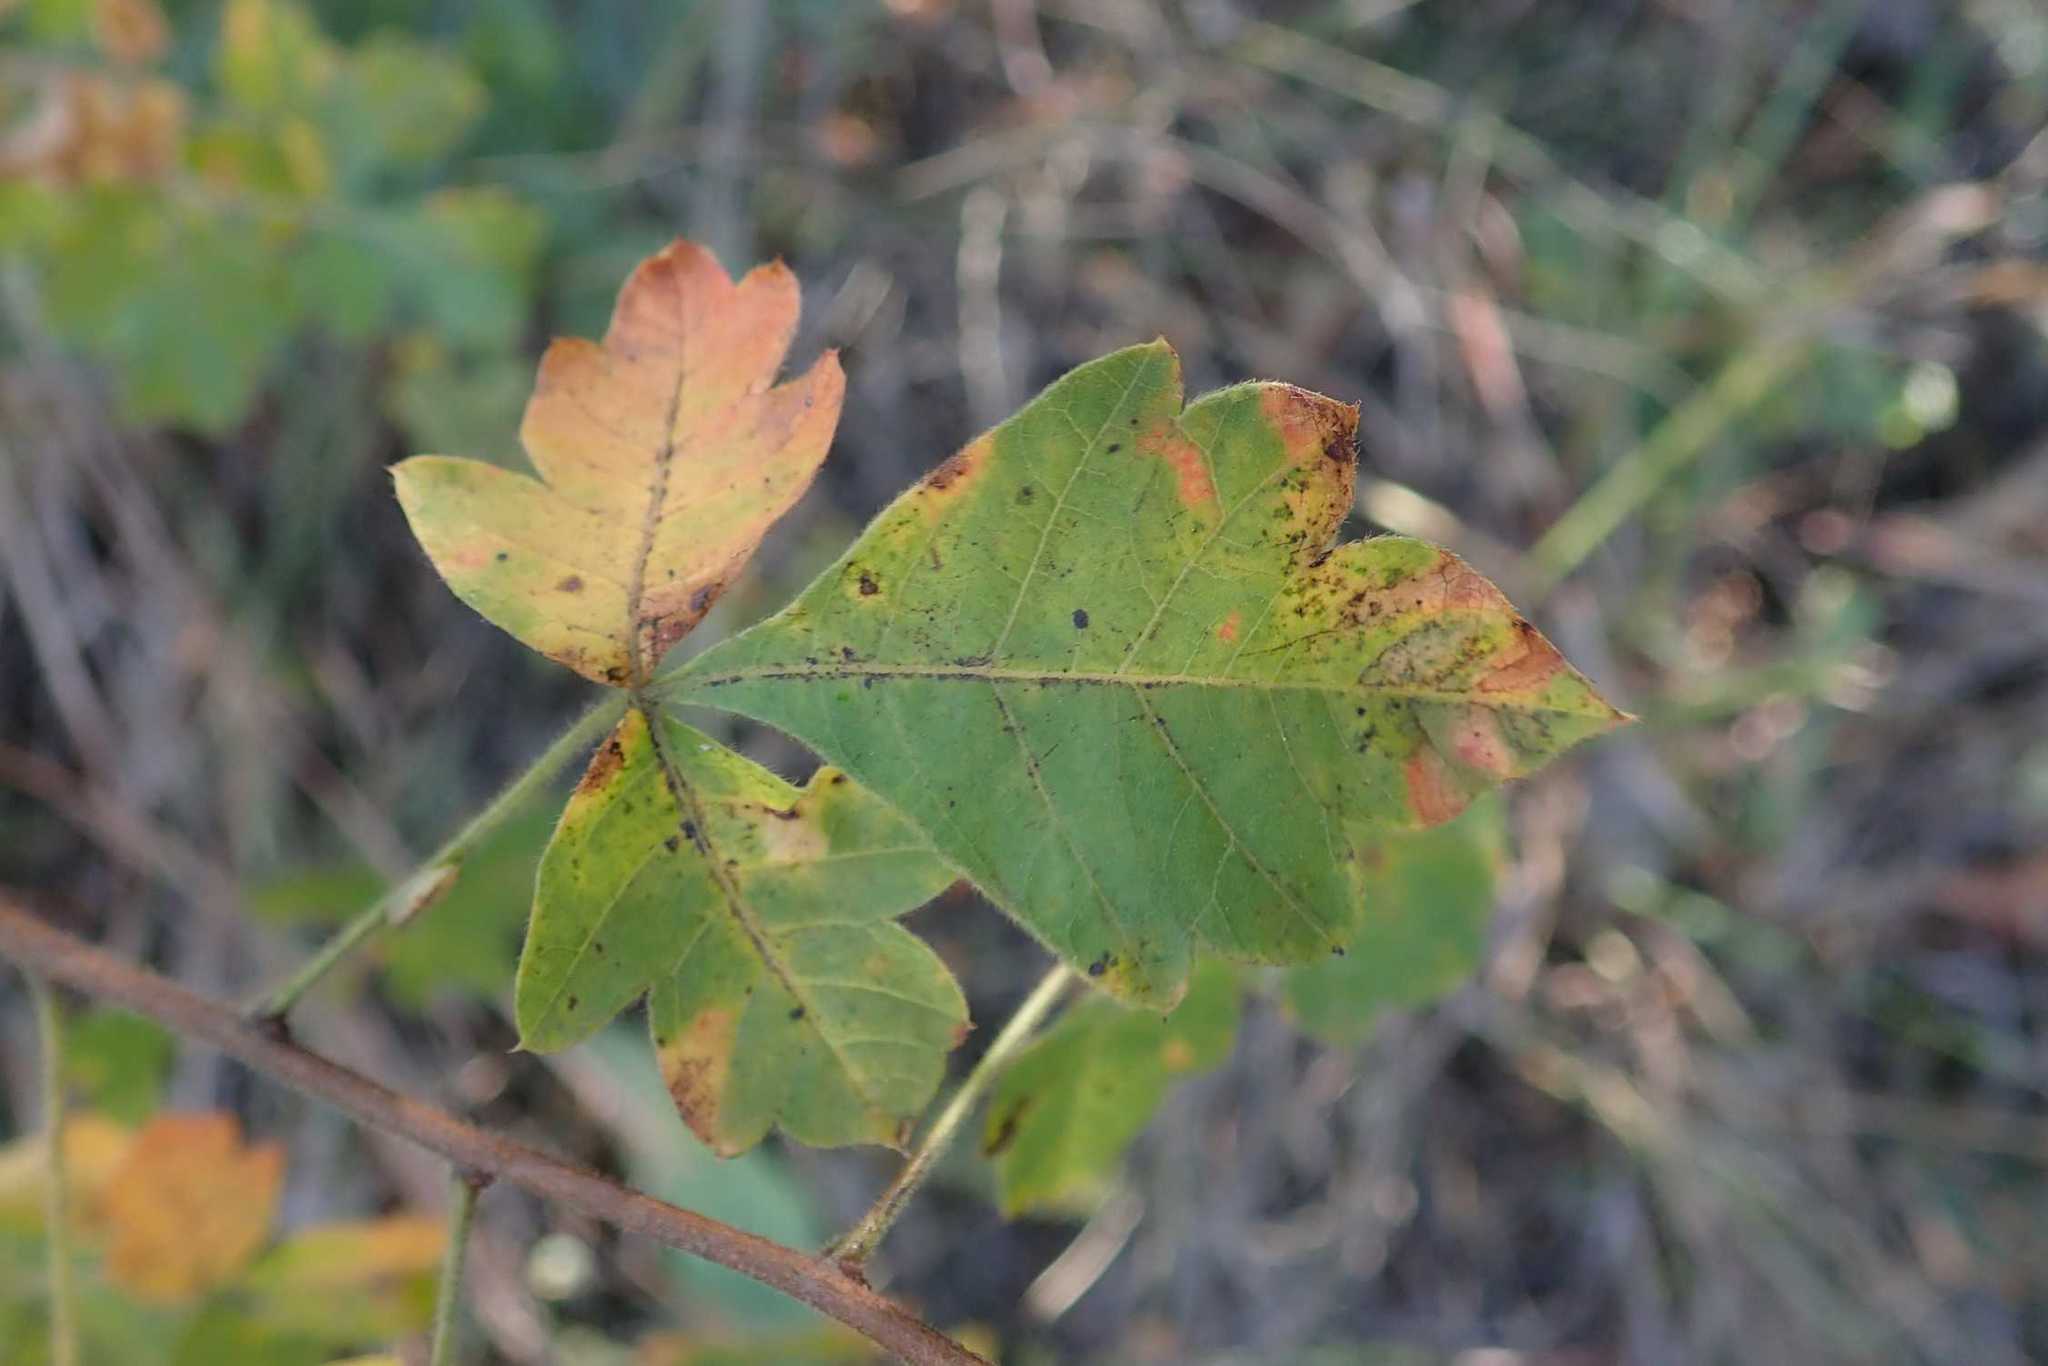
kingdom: Plantae
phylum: Tracheophyta
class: Magnoliopsida
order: Sapindales
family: Anacardiaceae
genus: Searsia
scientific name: Searsia dentata
